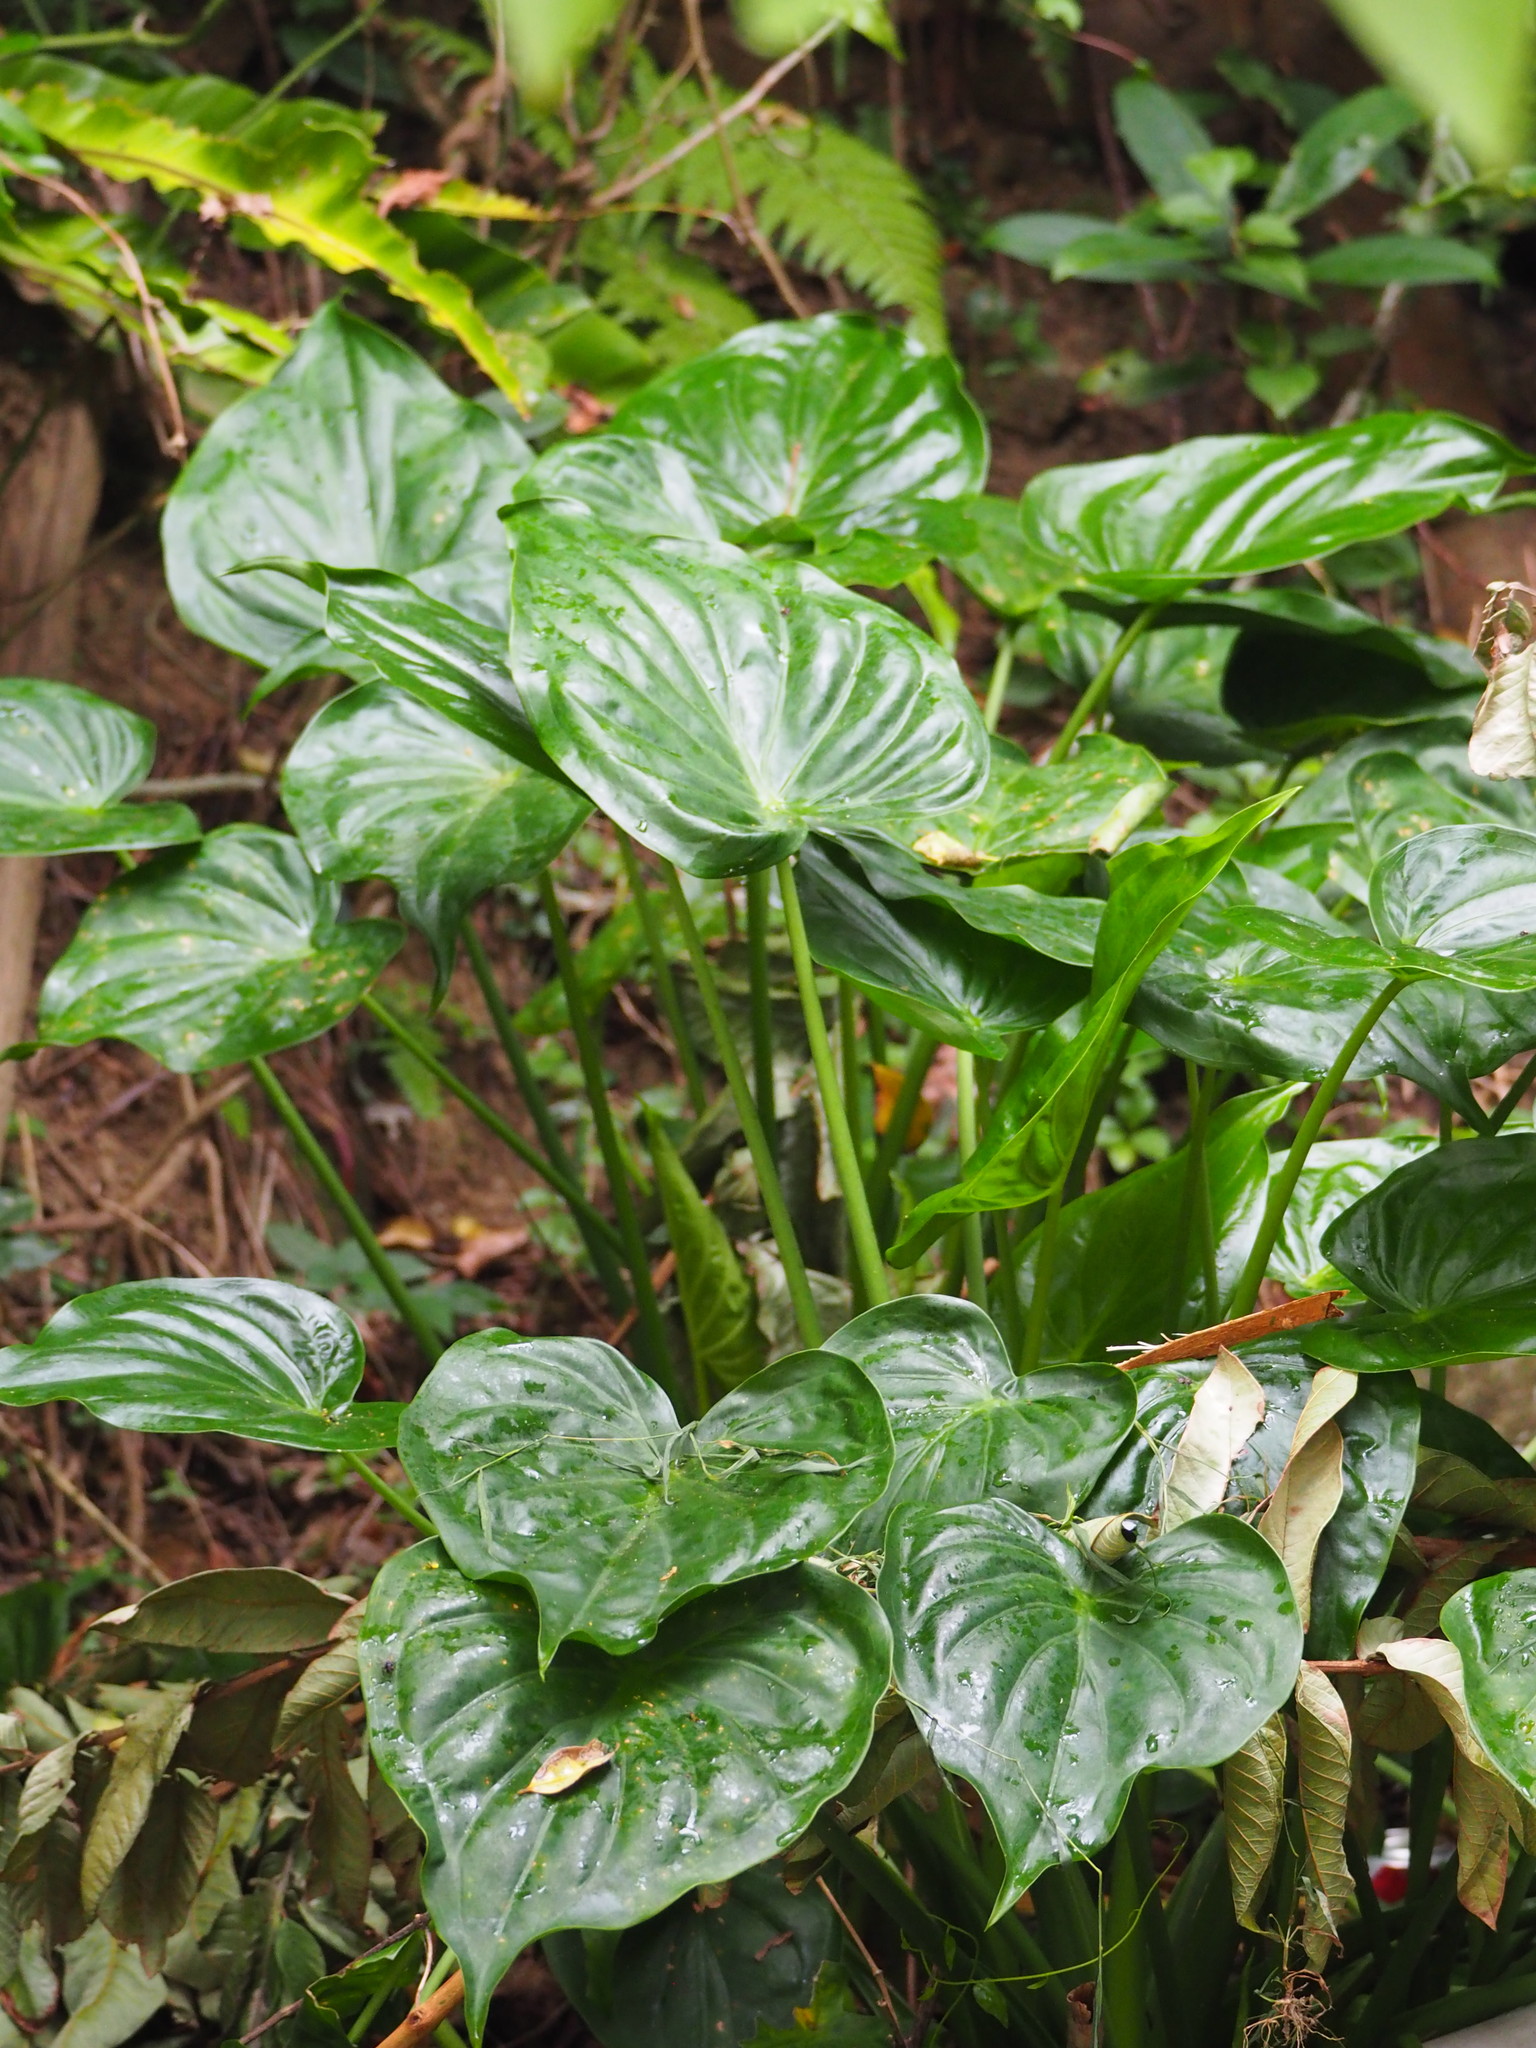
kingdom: Plantae
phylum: Tracheophyta
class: Liliopsida
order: Alismatales
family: Araceae
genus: Alocasia
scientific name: Alocasia cucullata
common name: Buddha's hand
